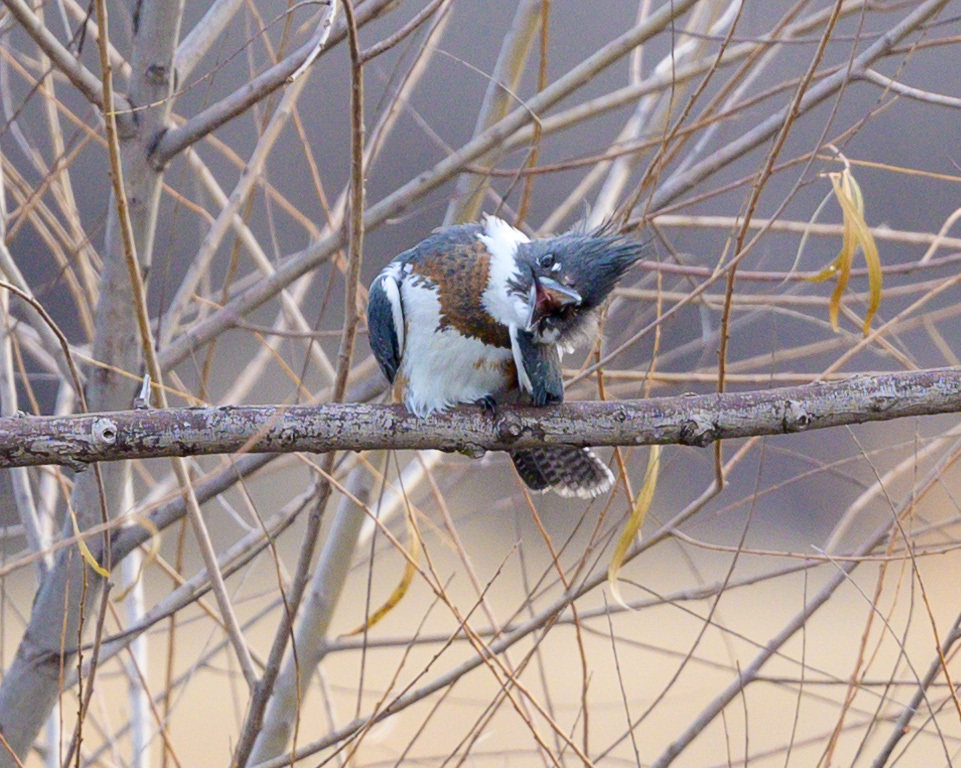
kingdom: Animalia
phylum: Chordata
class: Aves
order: Coraciiformes
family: Alcedinidae
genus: Megaceryle
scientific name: Megaceryle alcyon
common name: Belted kingfisher
